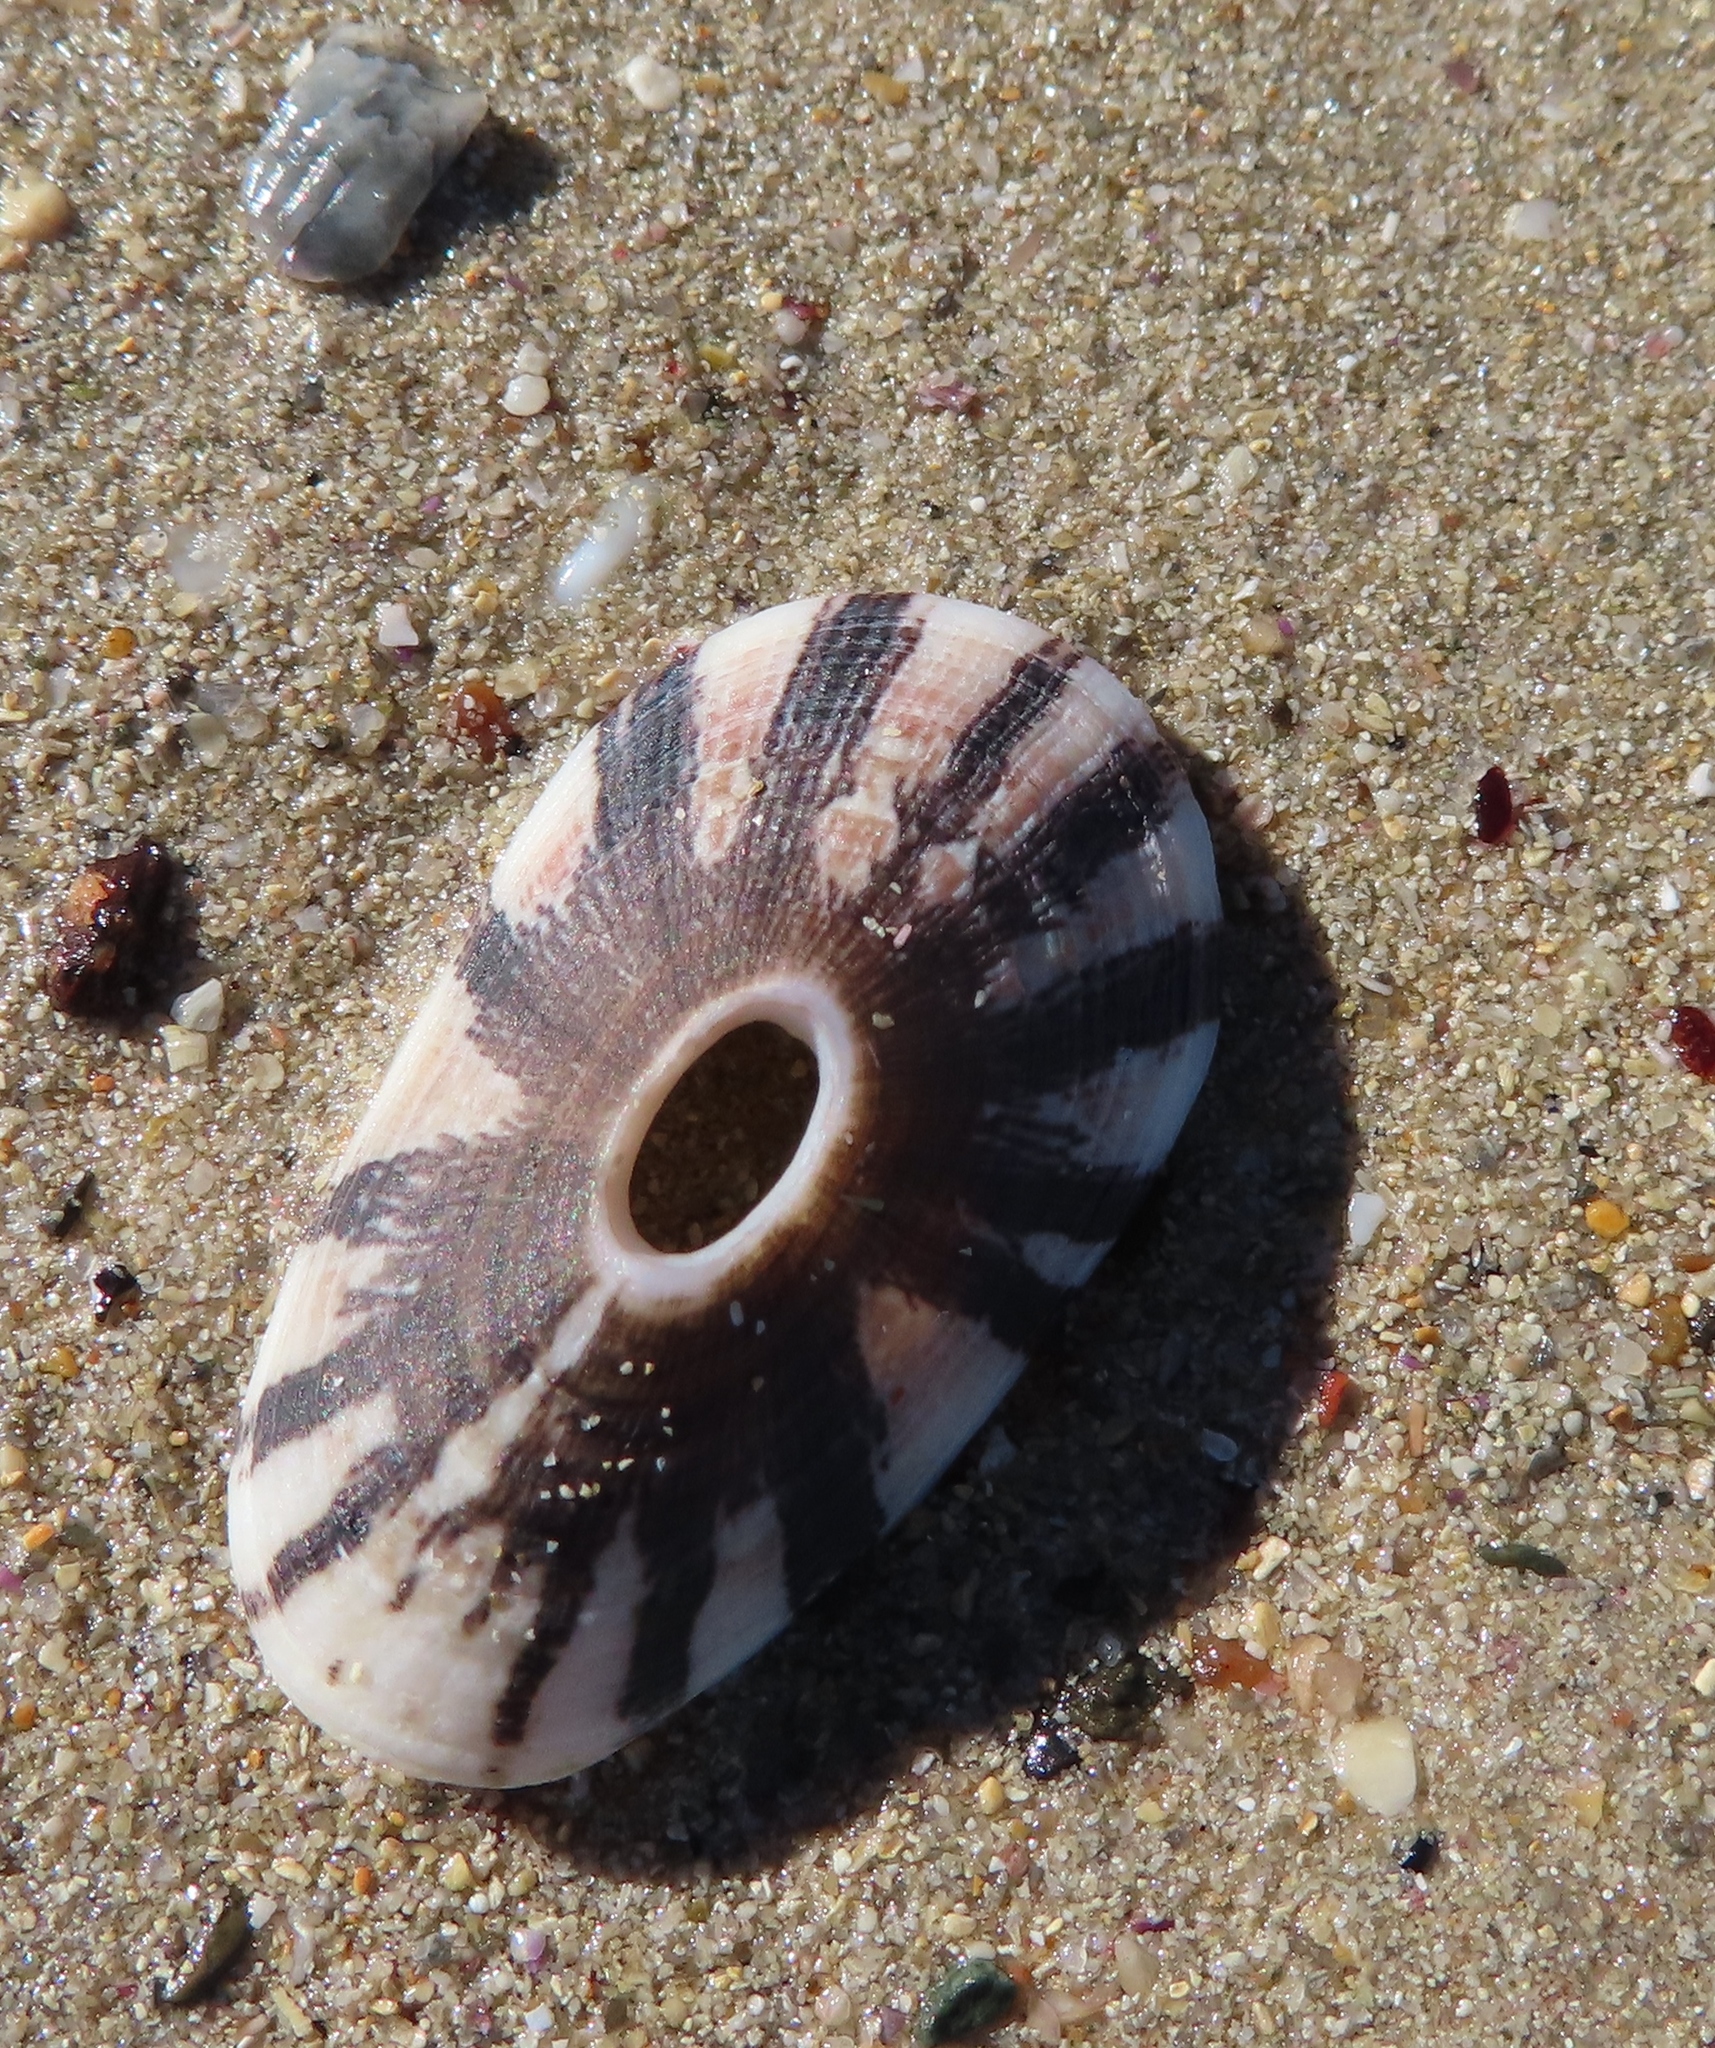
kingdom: Animalia
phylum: Mollusca
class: Gastropoda
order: Lepetellida
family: Fissurellidae
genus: Dendrofissurella
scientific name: Dendrofissurella scutellum
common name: Saddle-shaped keyhole limpet
